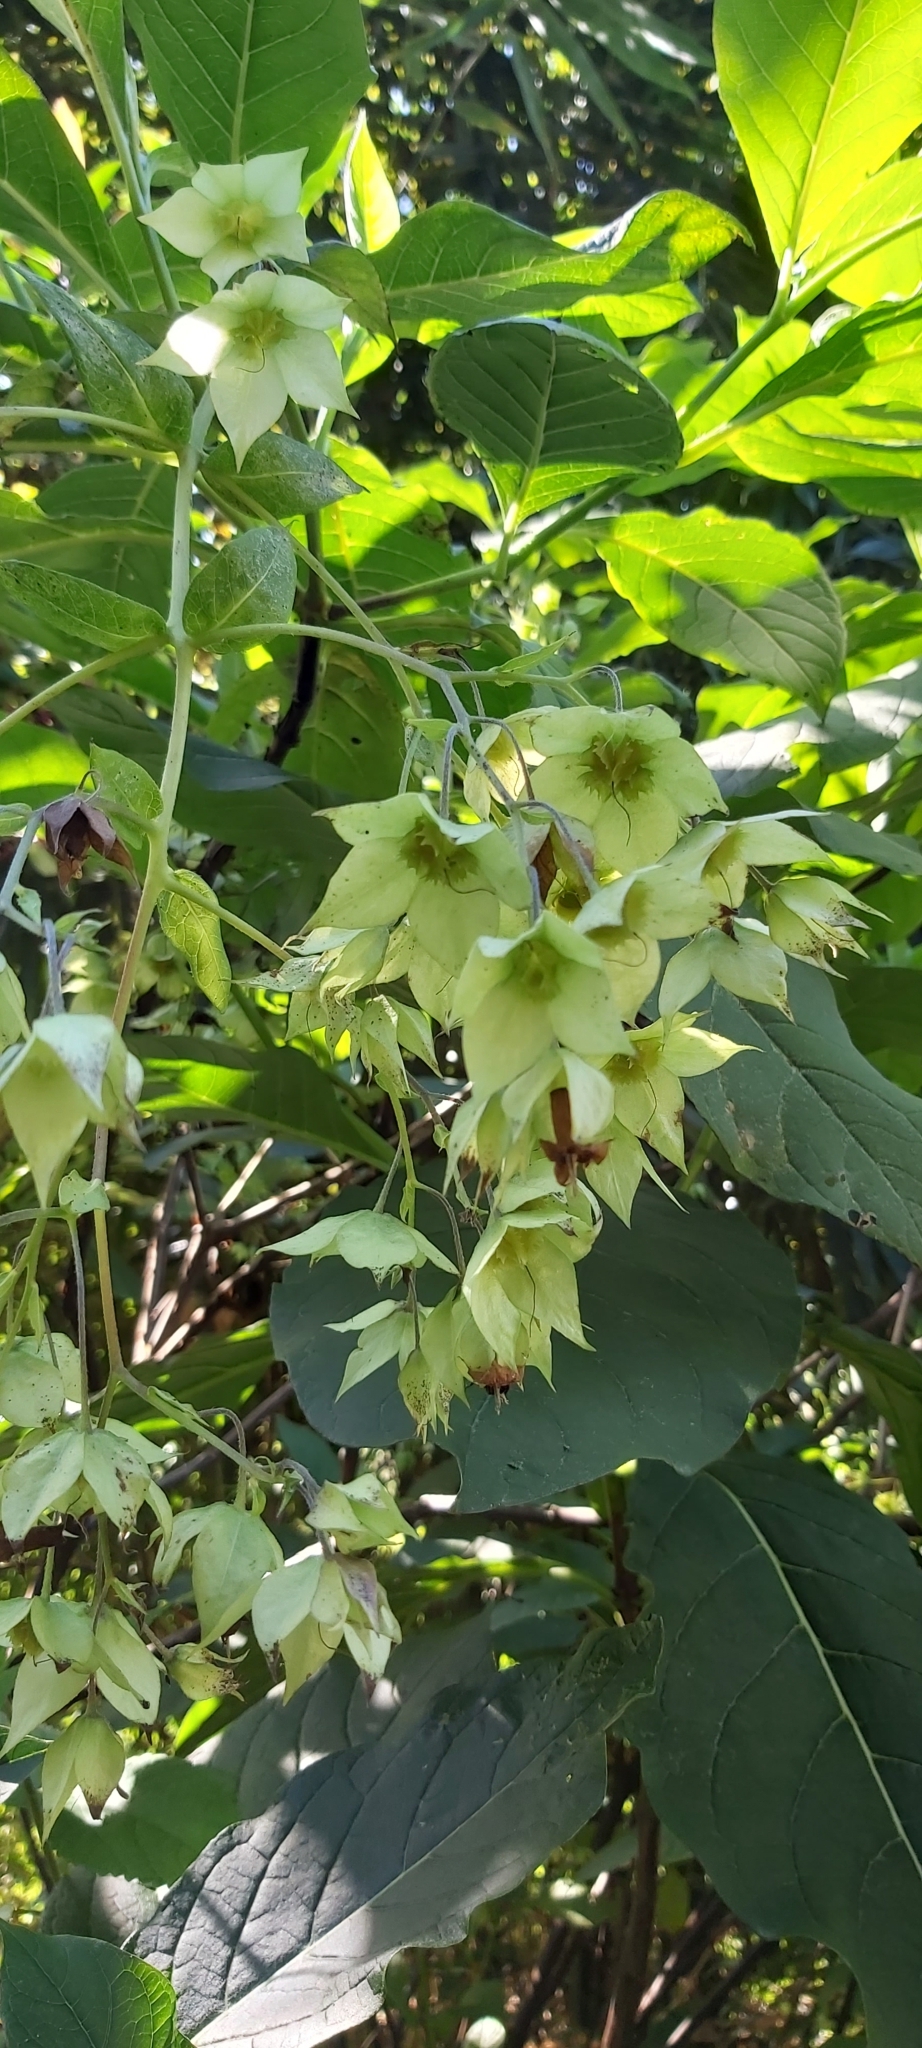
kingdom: Plantae
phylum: Tracheophyta
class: Magnoliopsida
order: Boraginales
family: Boraginaceae
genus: Trichodesma
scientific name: Trichodesma calycosum
